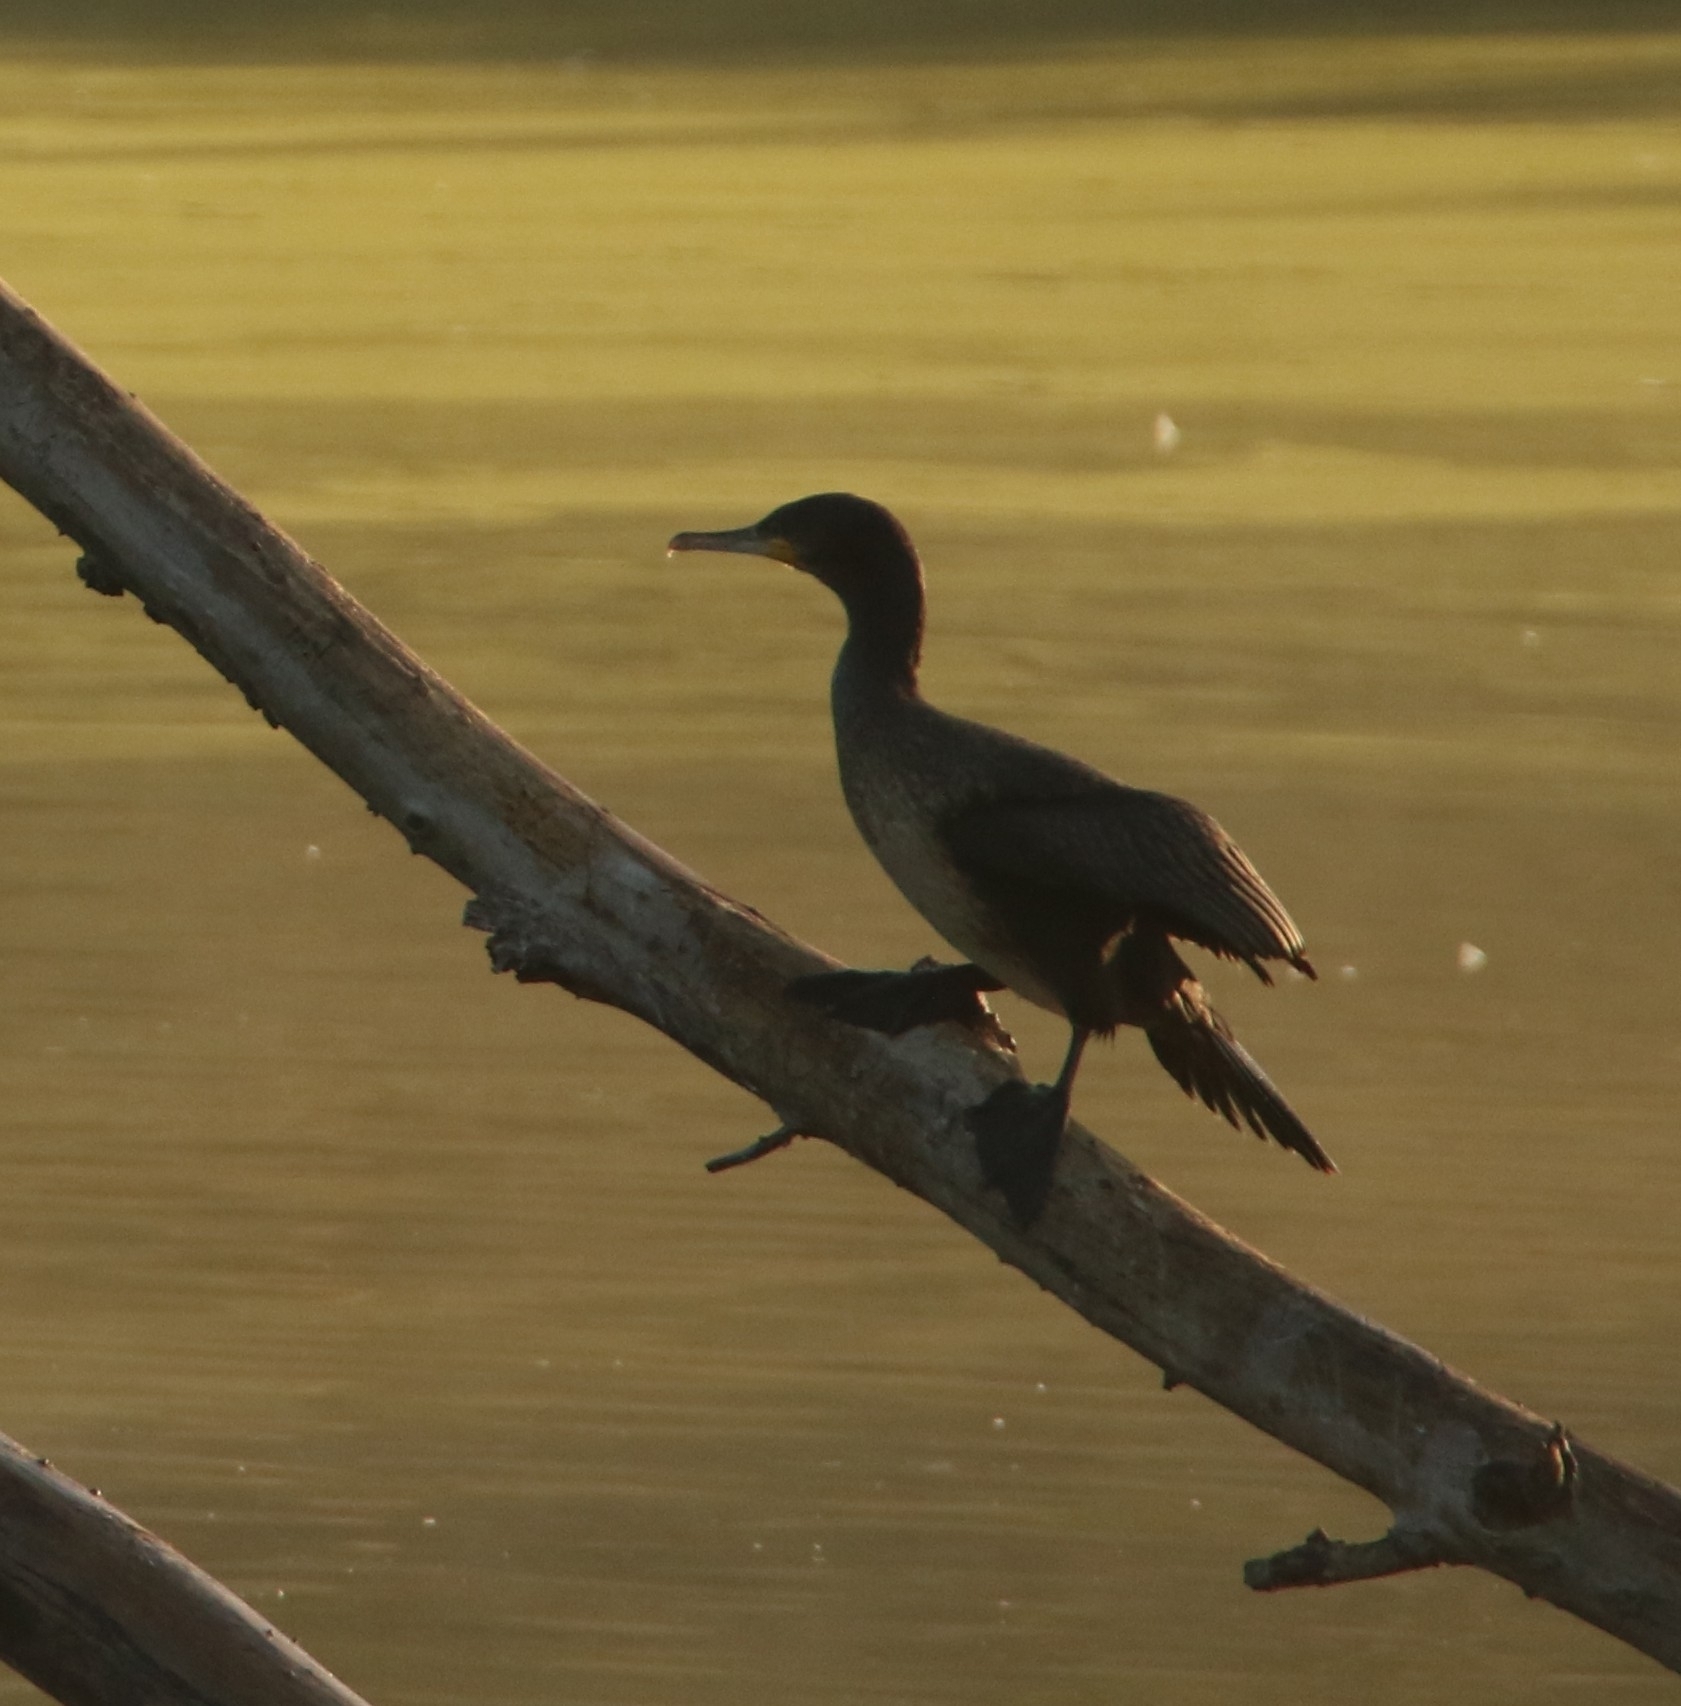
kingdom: Animalia
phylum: Chordata
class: Aves
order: Suliformes
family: Phalacrocoracidae
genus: Phalacrocorax
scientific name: Phalacrocorax carbo
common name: Great cormorant
